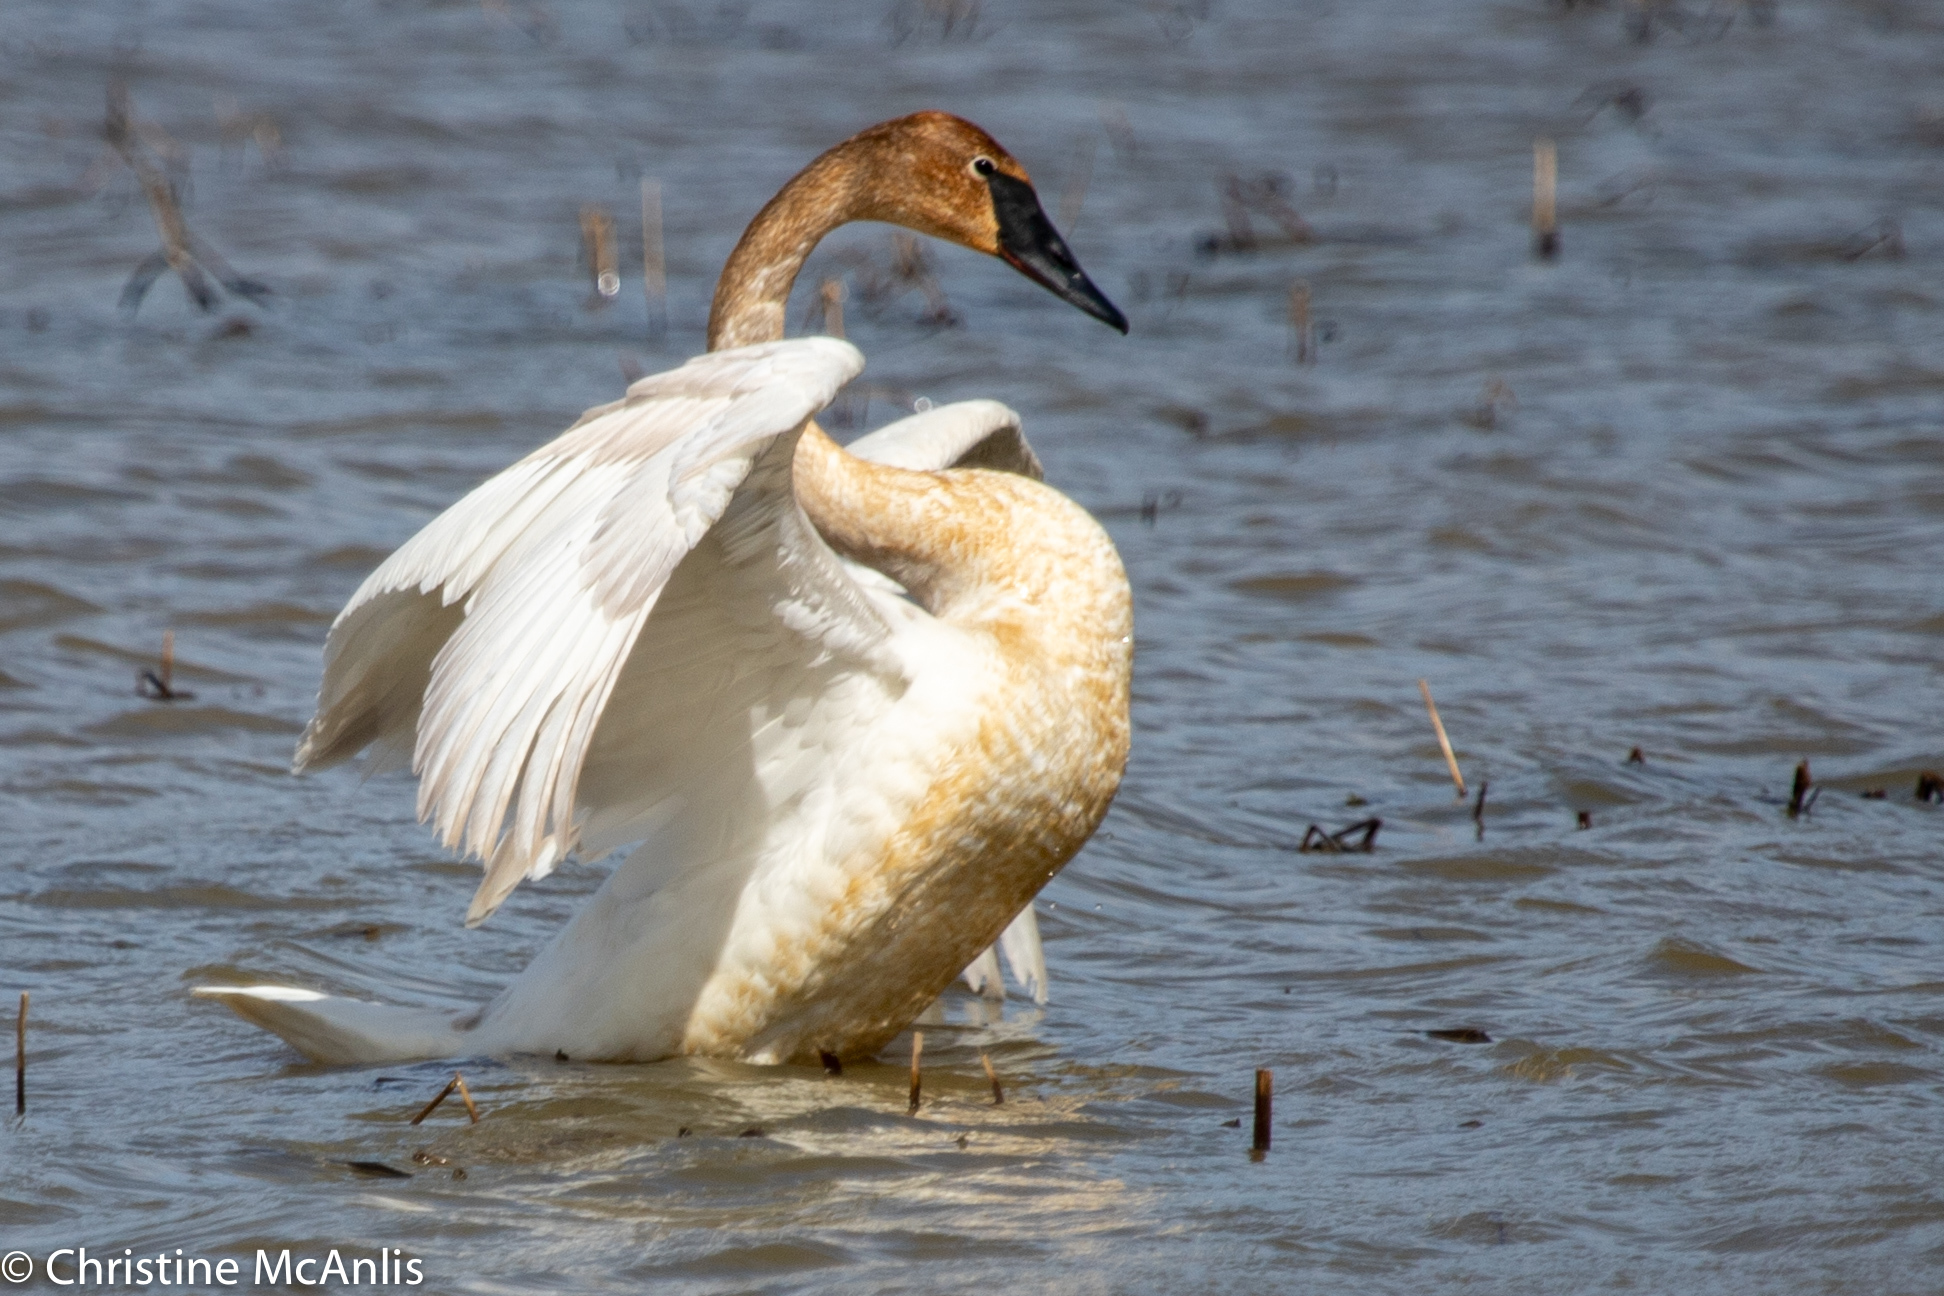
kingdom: Animalia
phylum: Chordata
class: Aves
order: Anseriformes
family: Anatidae
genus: Cygnus
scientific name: Cygnus buccinator
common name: Trumpeter swan
